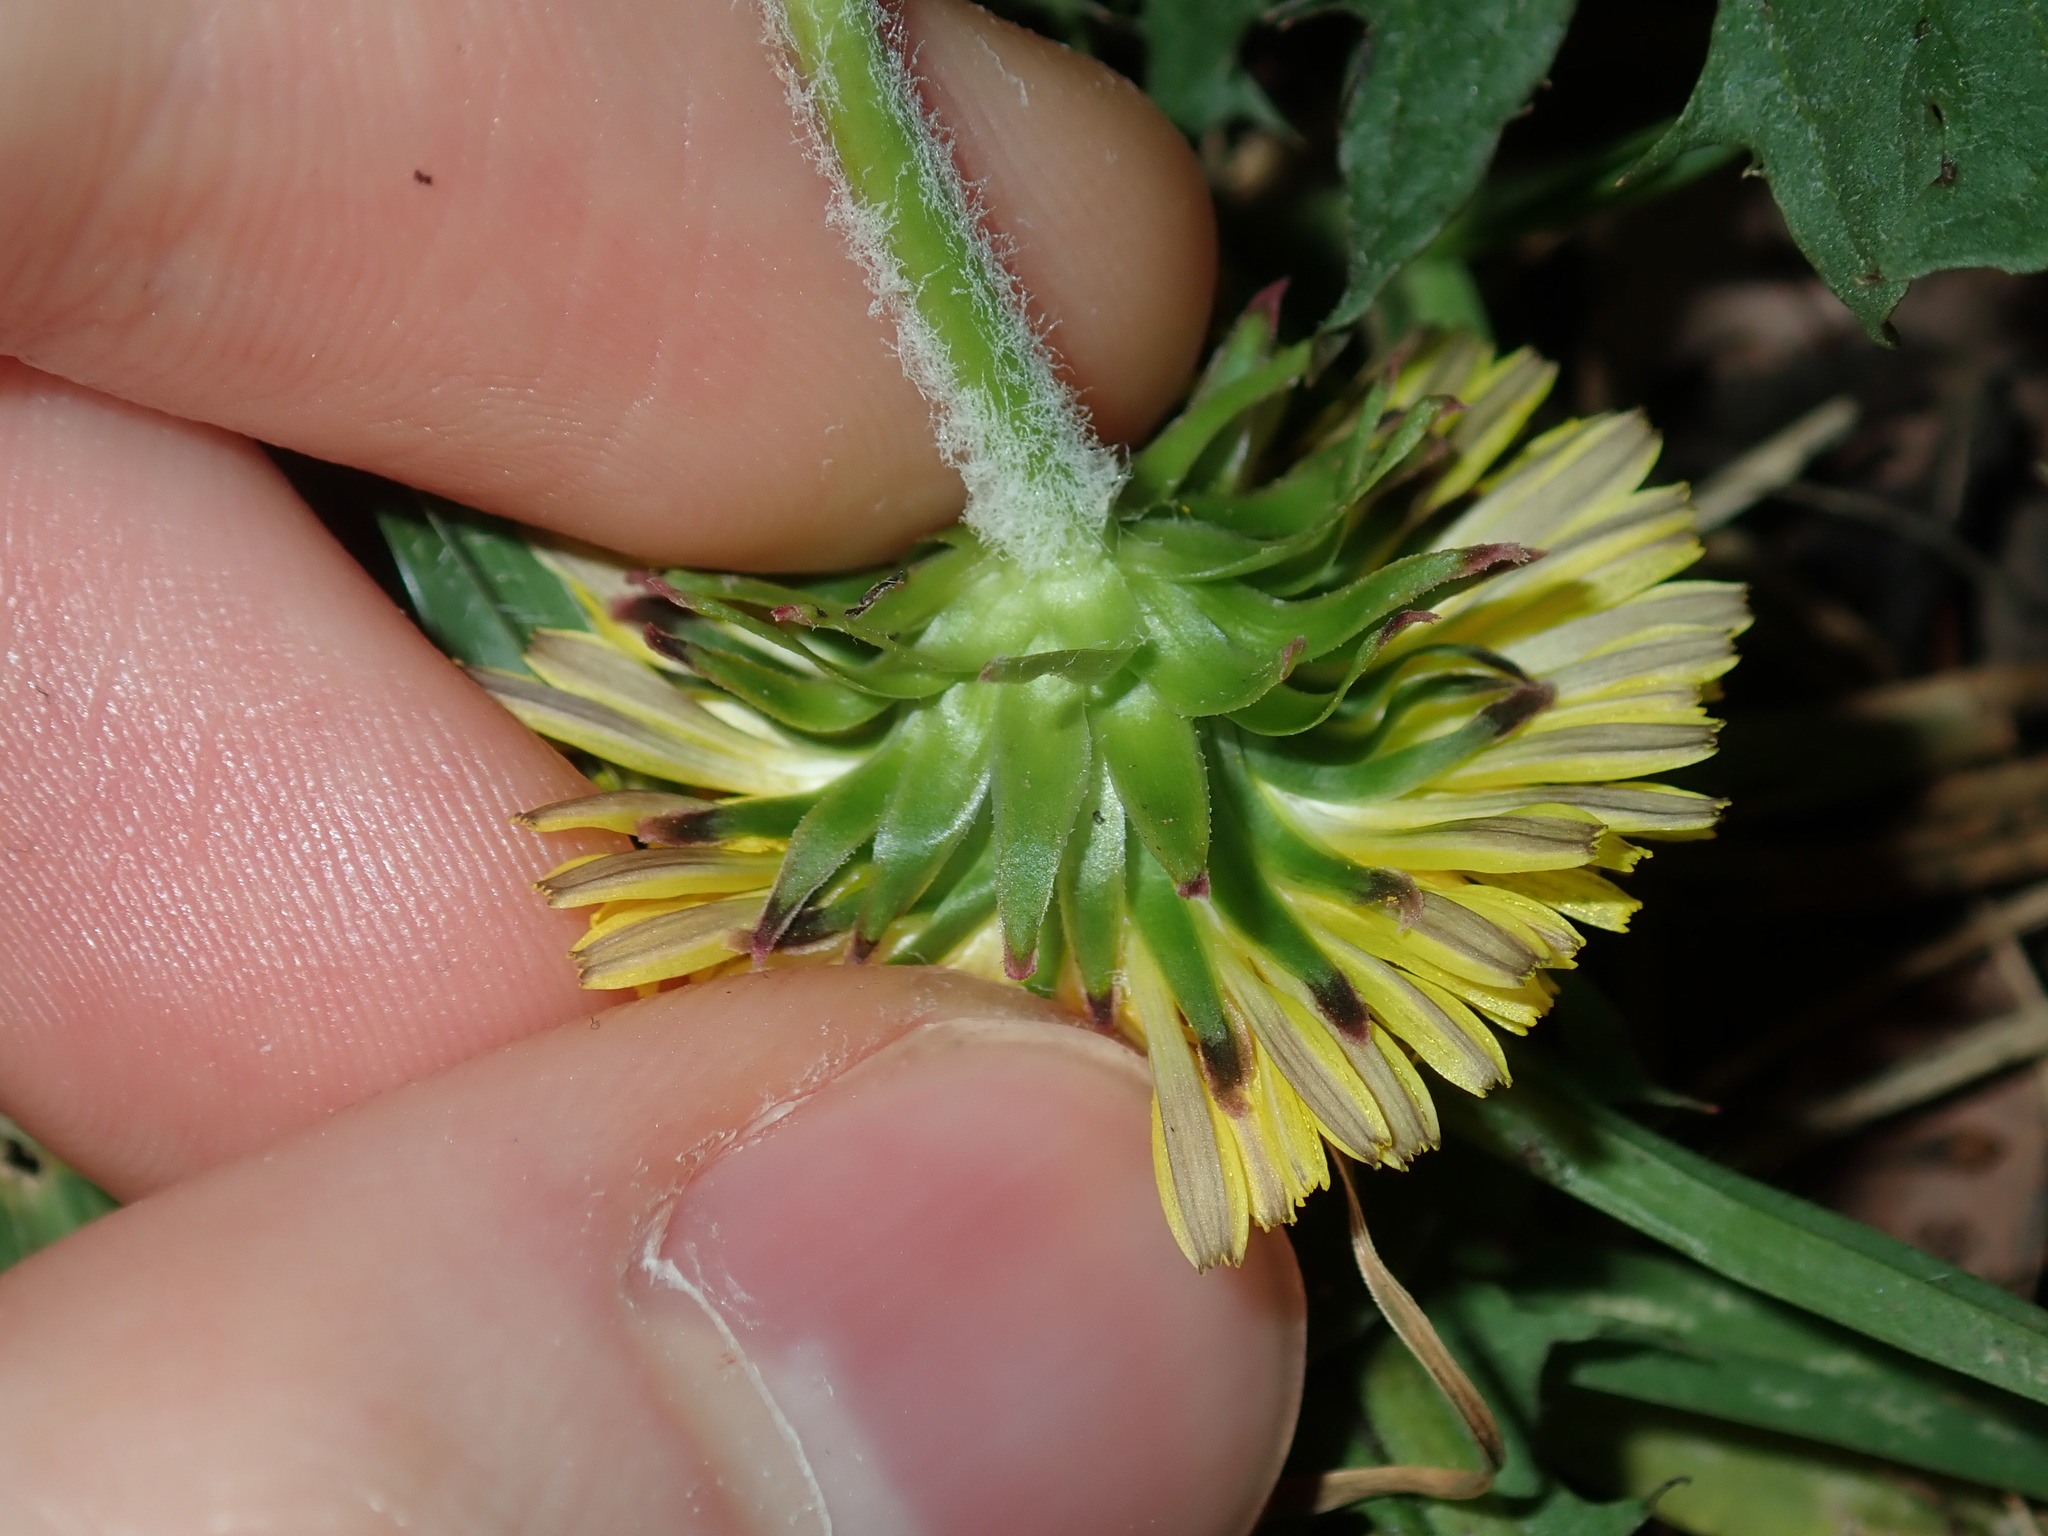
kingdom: Plantae
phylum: Tracheophyta
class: Magnoliopsida
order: Asterales
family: Asteraceae
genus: Taraxacum
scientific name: Taraxacum officinale
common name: Common dandelion
